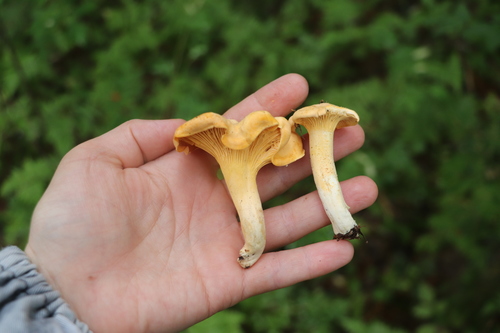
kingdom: Fungi
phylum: Basidiomycota
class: Agaricomycetes
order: Cantharellales
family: Hydnaceae
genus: Cantharellus
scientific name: Cantharellus cibarius
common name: Chanterelle
